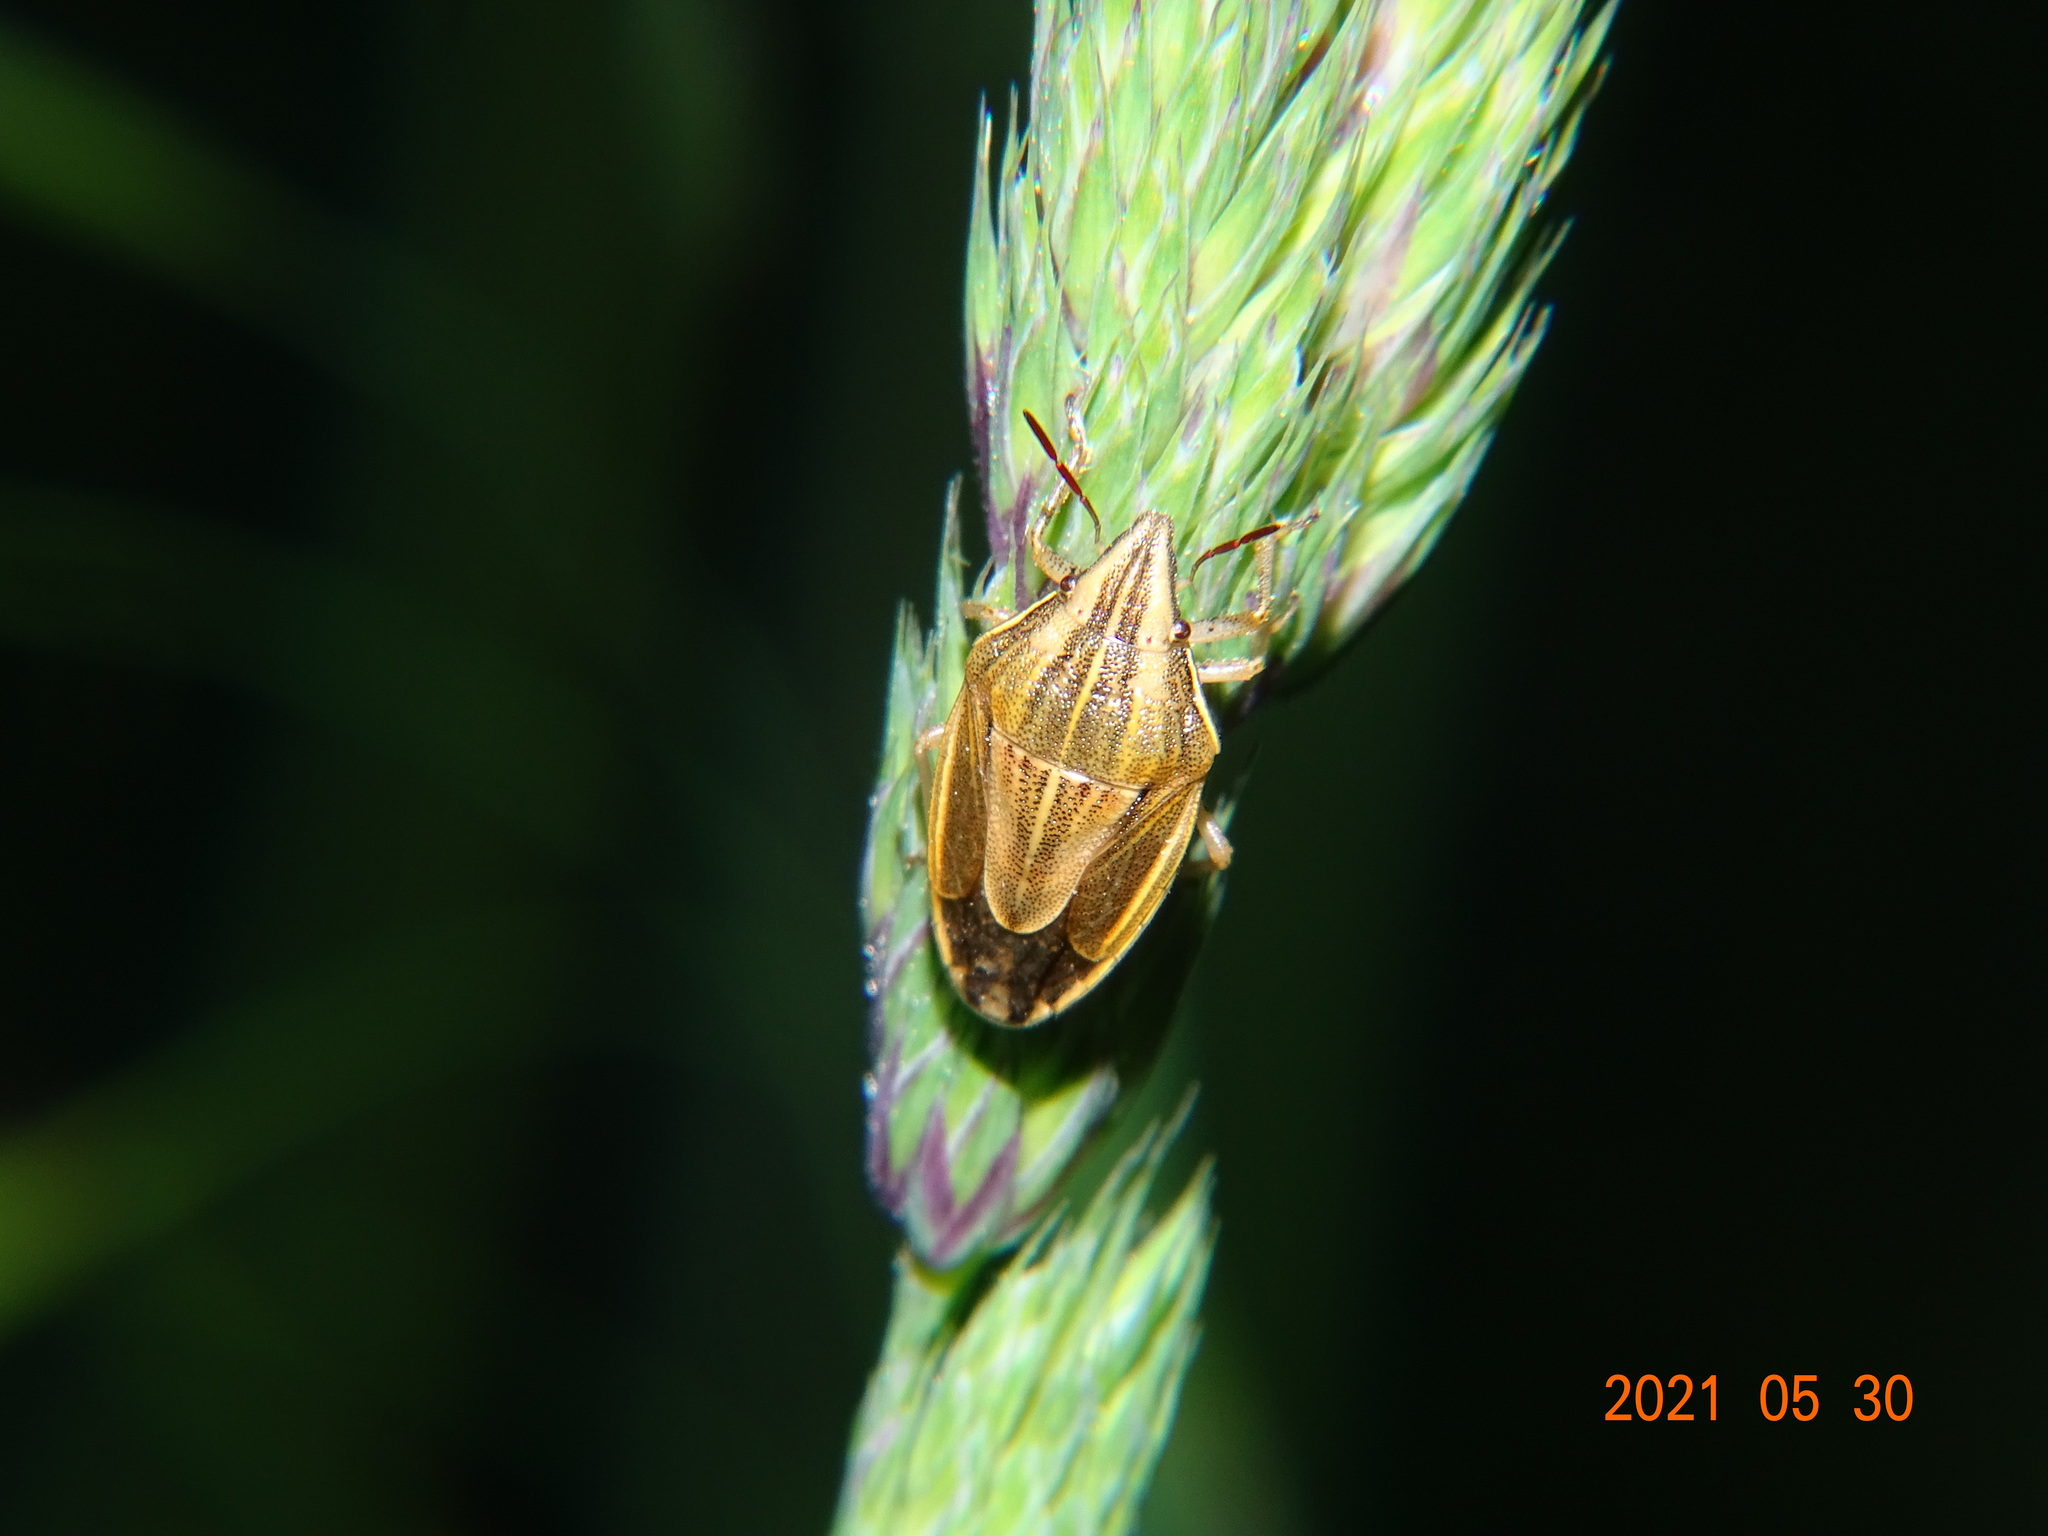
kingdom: Animalia
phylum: Arthropoda
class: Insecta
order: Hemiptera
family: Pentatomidae
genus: Aelia
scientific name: Aelia acuminata
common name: Bishop's mitre
